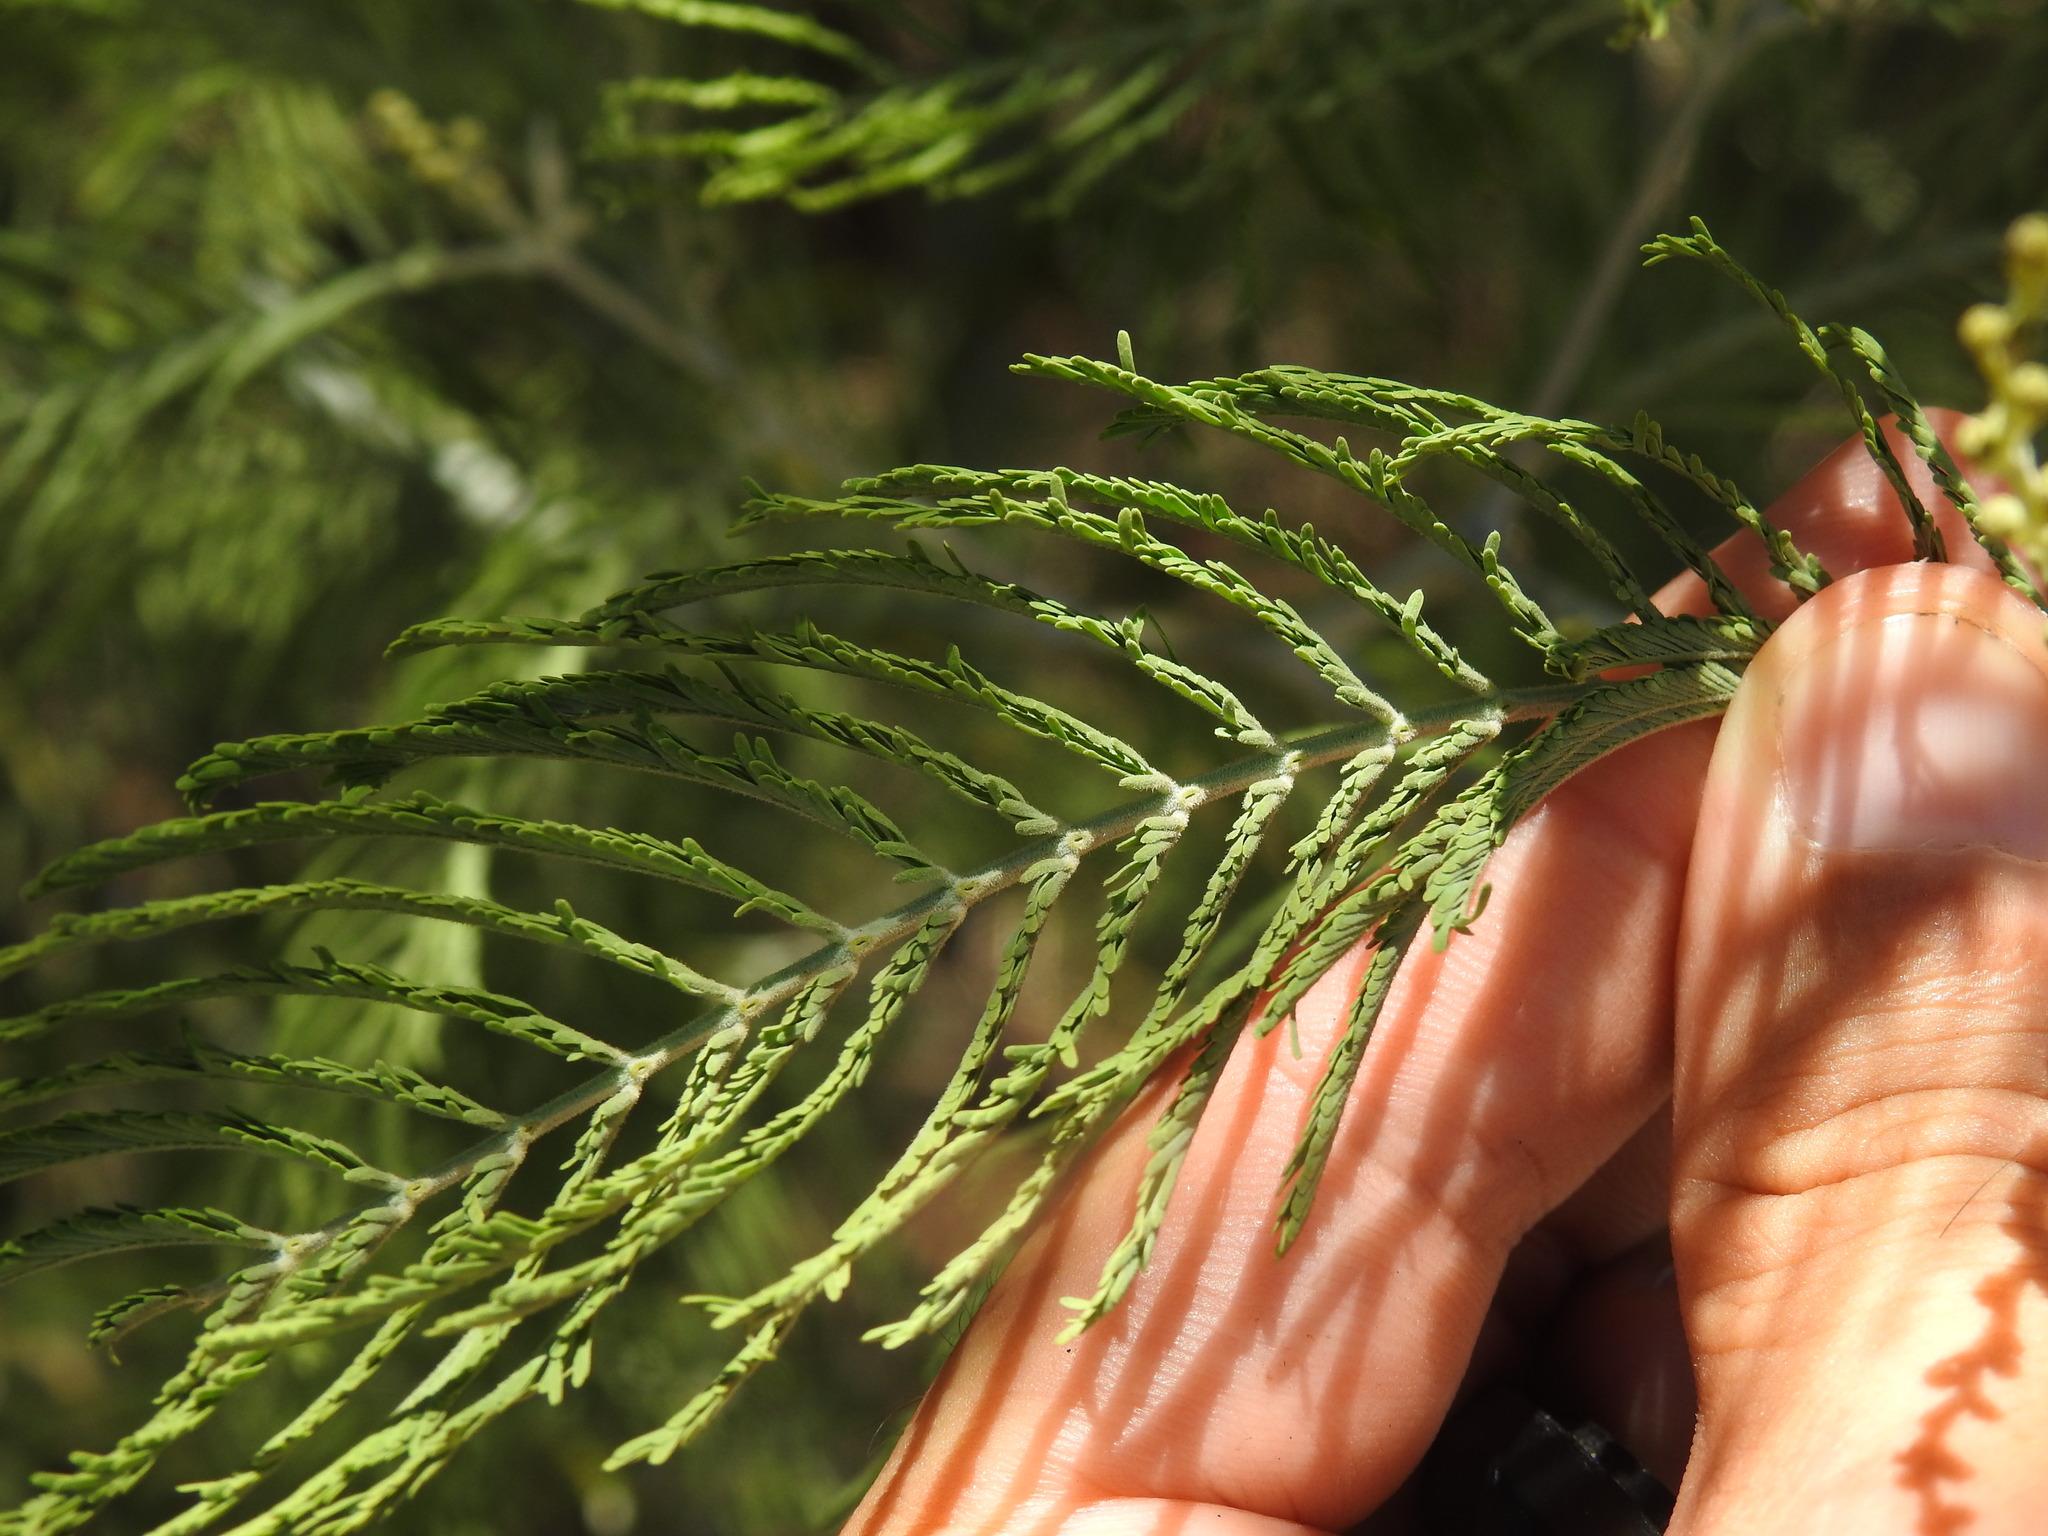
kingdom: Plantae
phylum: Tracheophyta
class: Magnoliopsida
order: Fabales
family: Fabaceae
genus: Acacia
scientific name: Acacia dealbata
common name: Silver wattle
